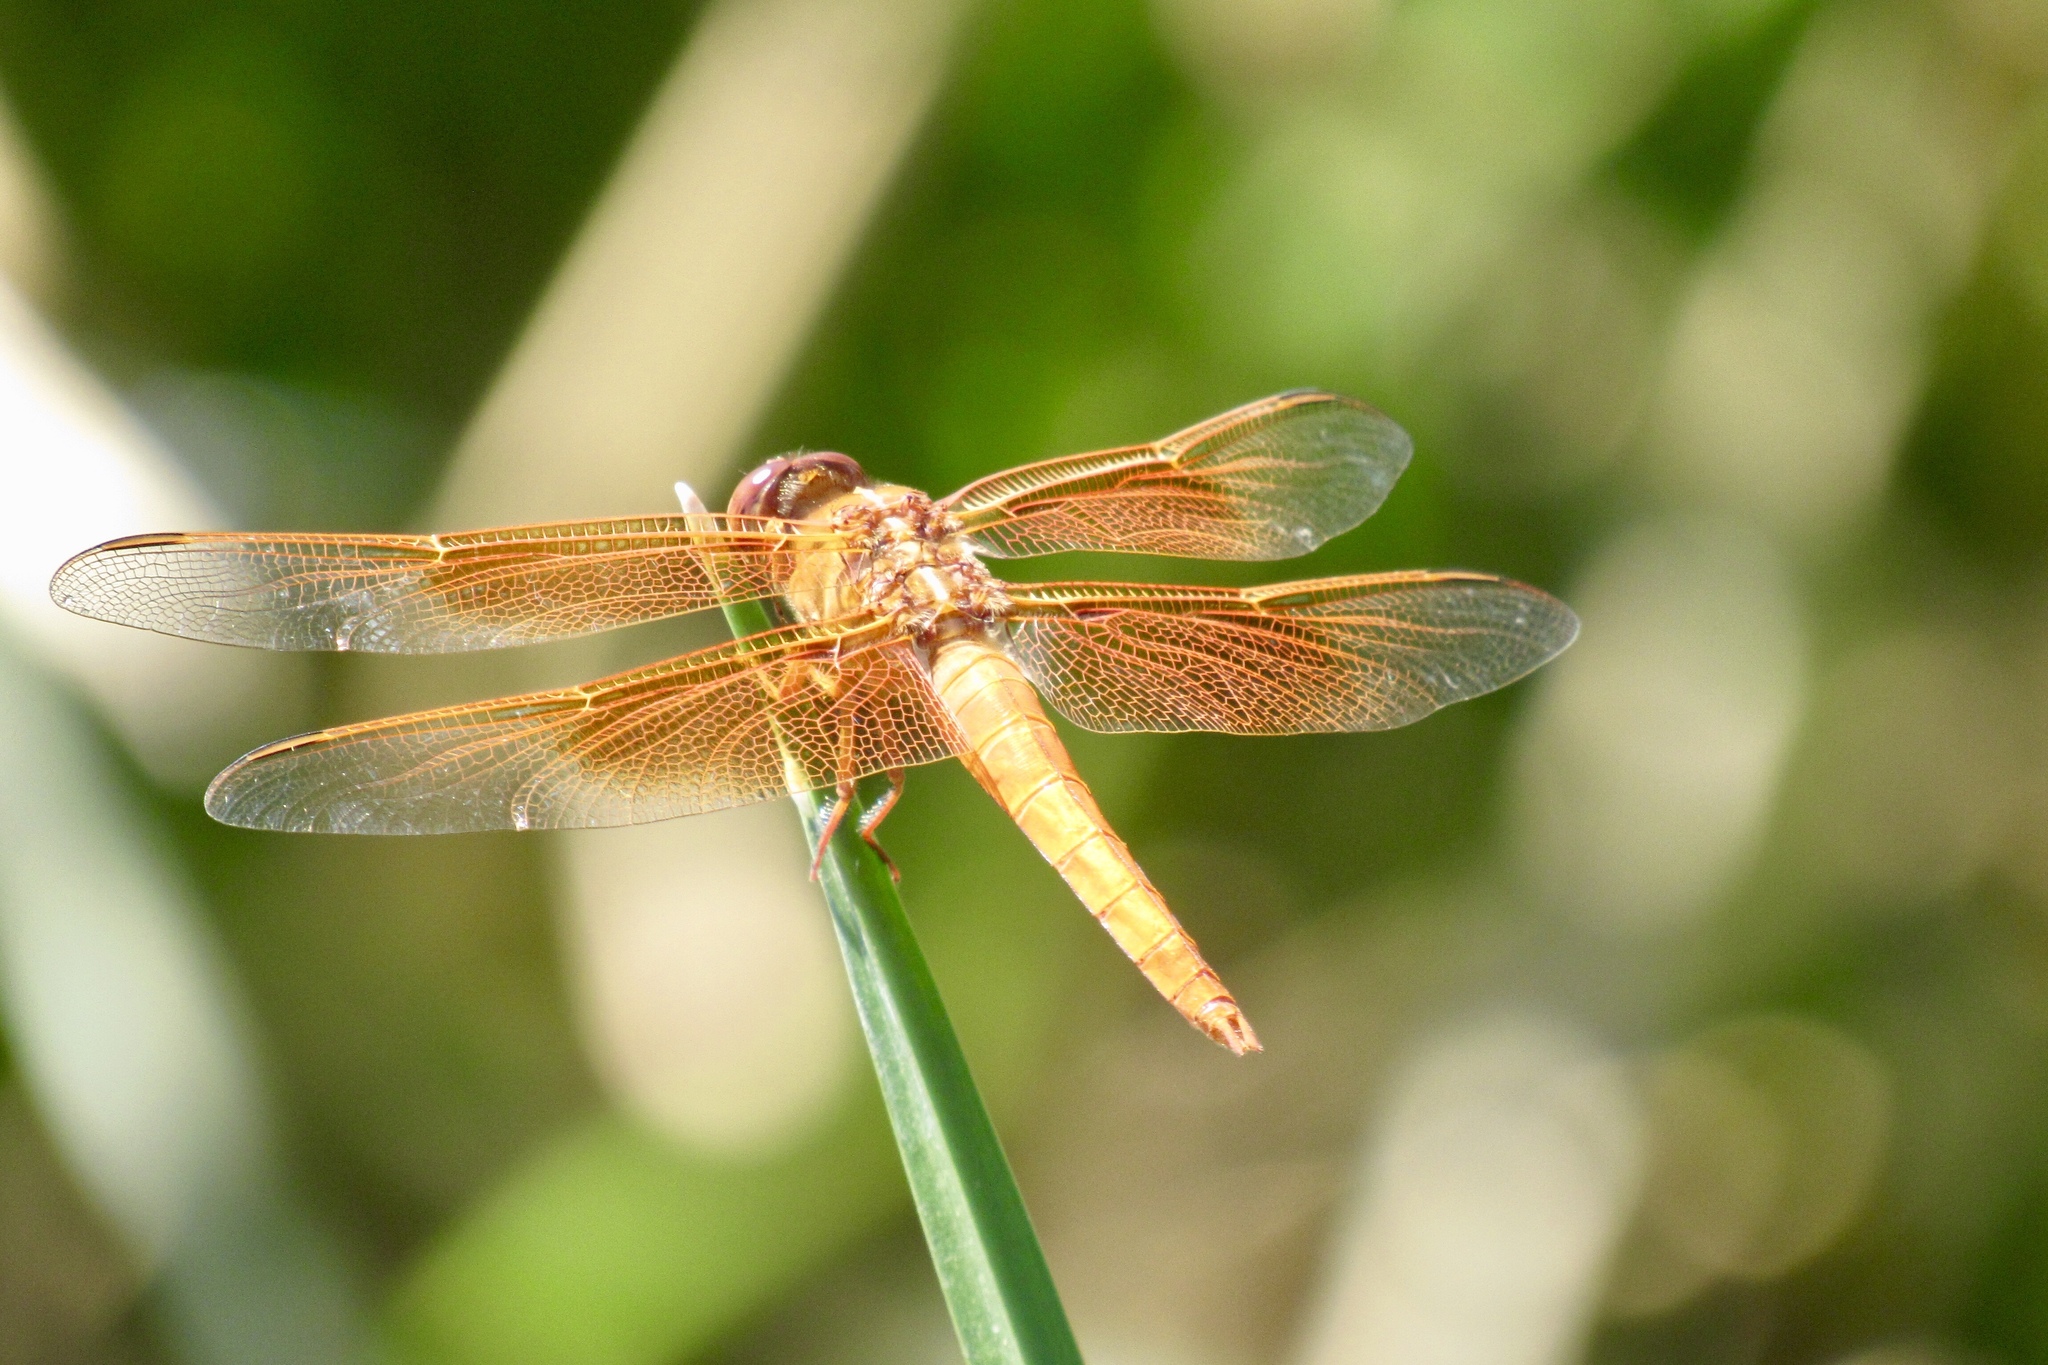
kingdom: Animalia
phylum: Arthropoda
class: Insecta
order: Odonata
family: Libellulidae
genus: Libellula
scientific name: Libellula saturata
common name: Flame skimmer
